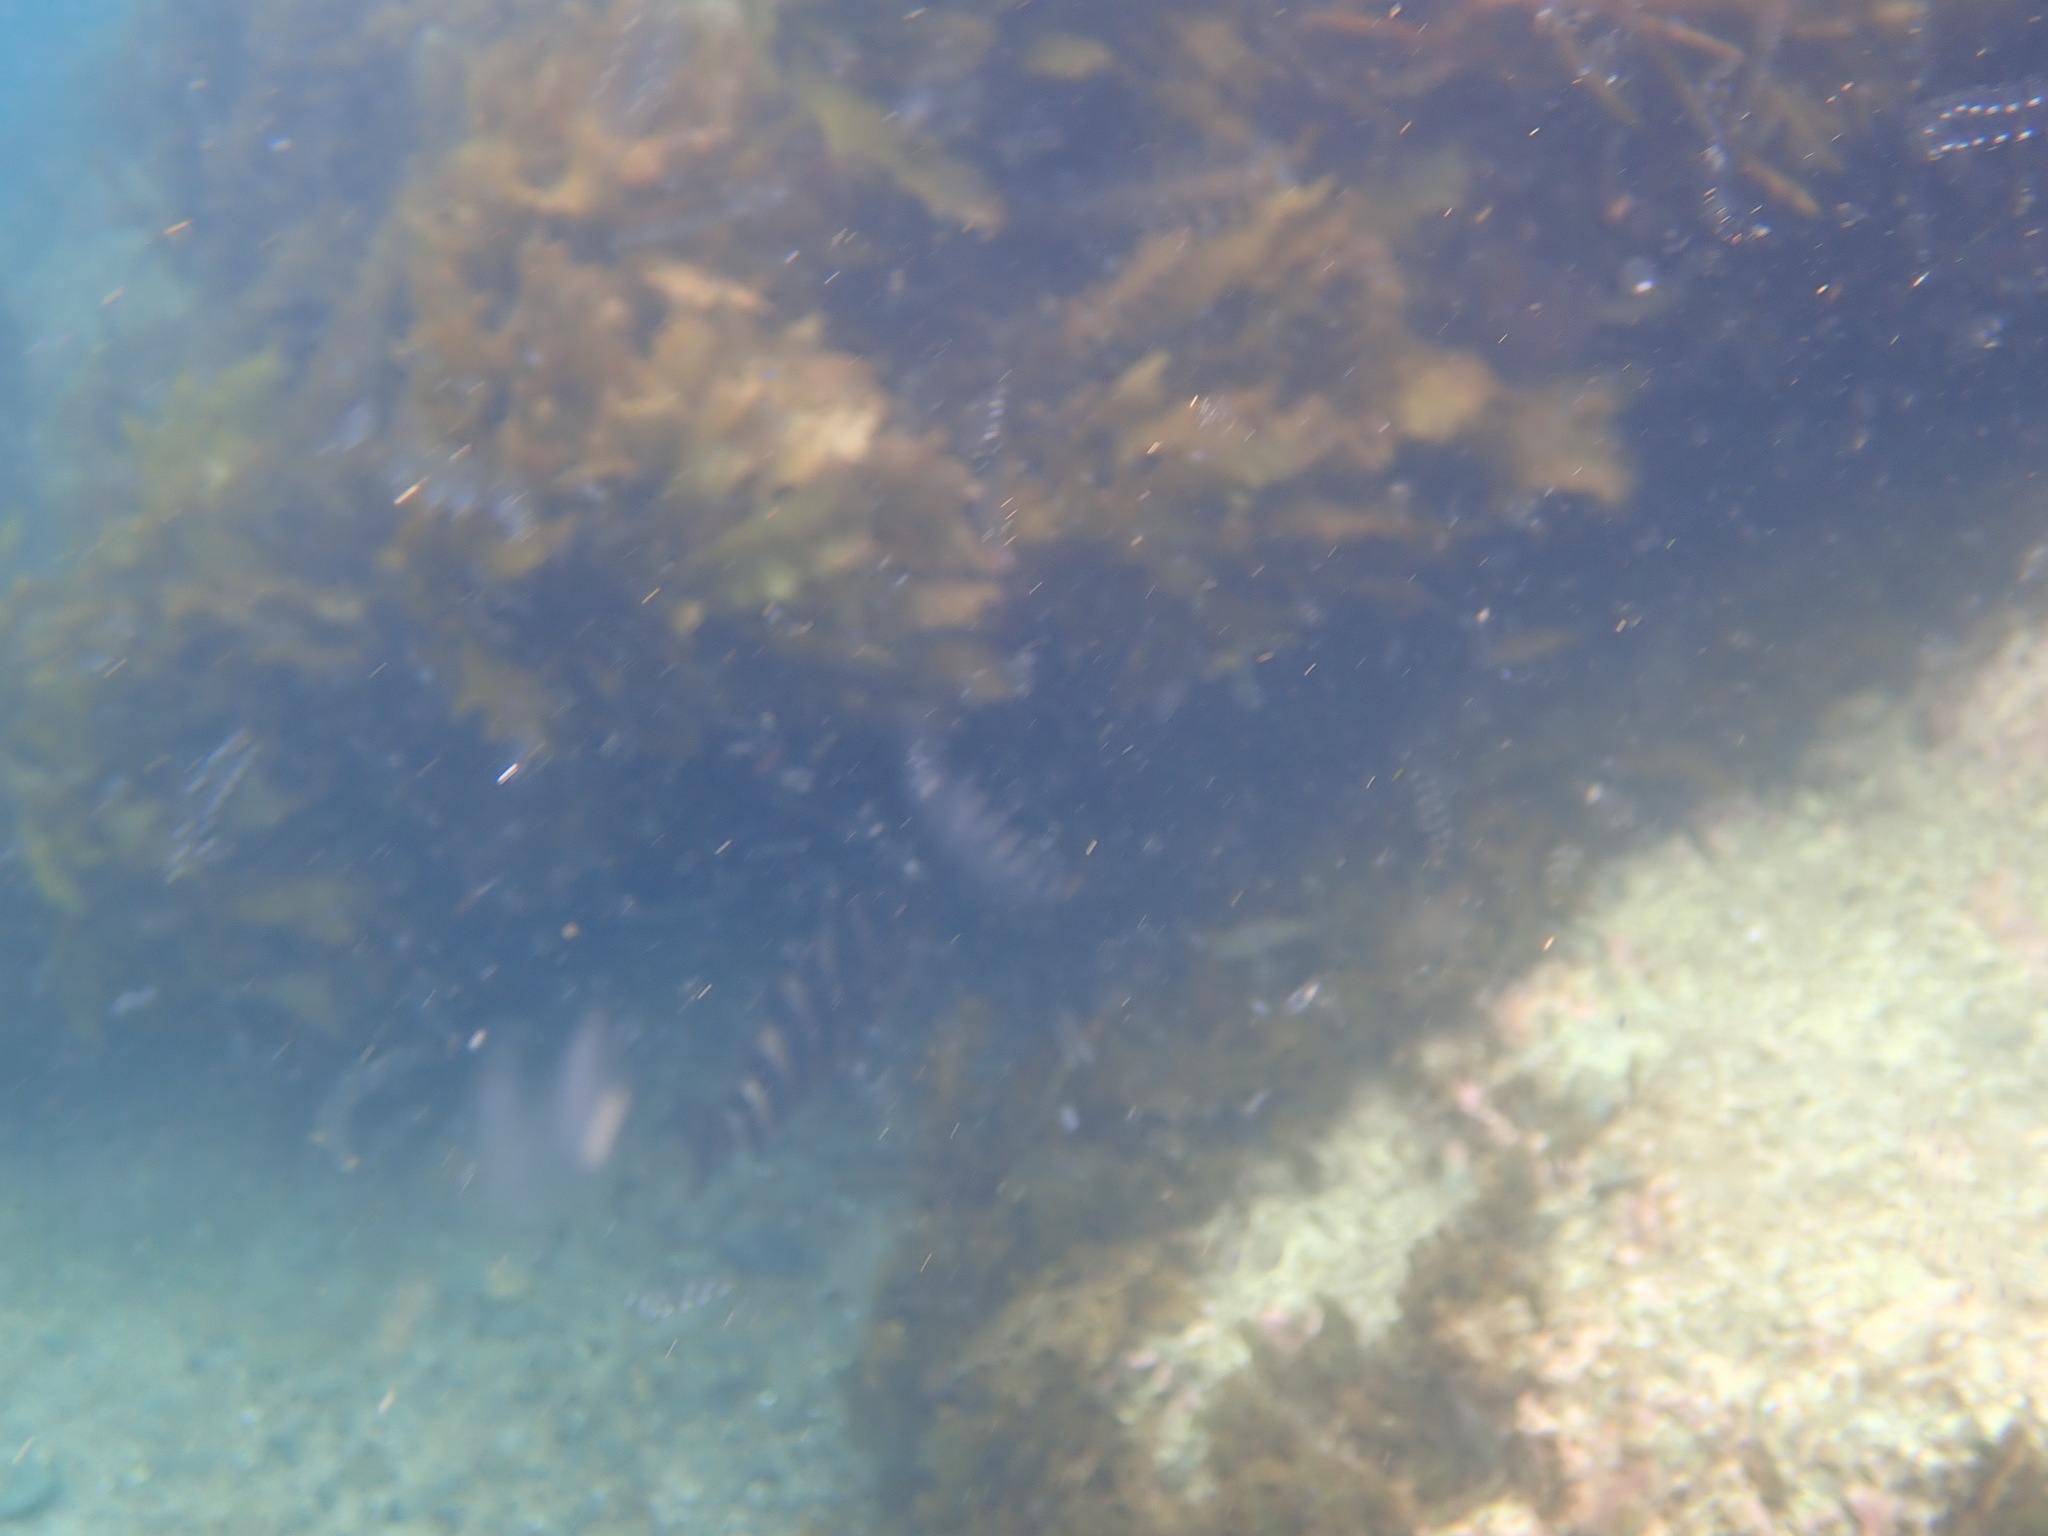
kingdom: Animalia
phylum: Chordata
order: Perciformes
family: Cheilodactylidae
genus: Cheilodactylus
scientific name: Cheilodactylus spectabilis
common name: Red moki
